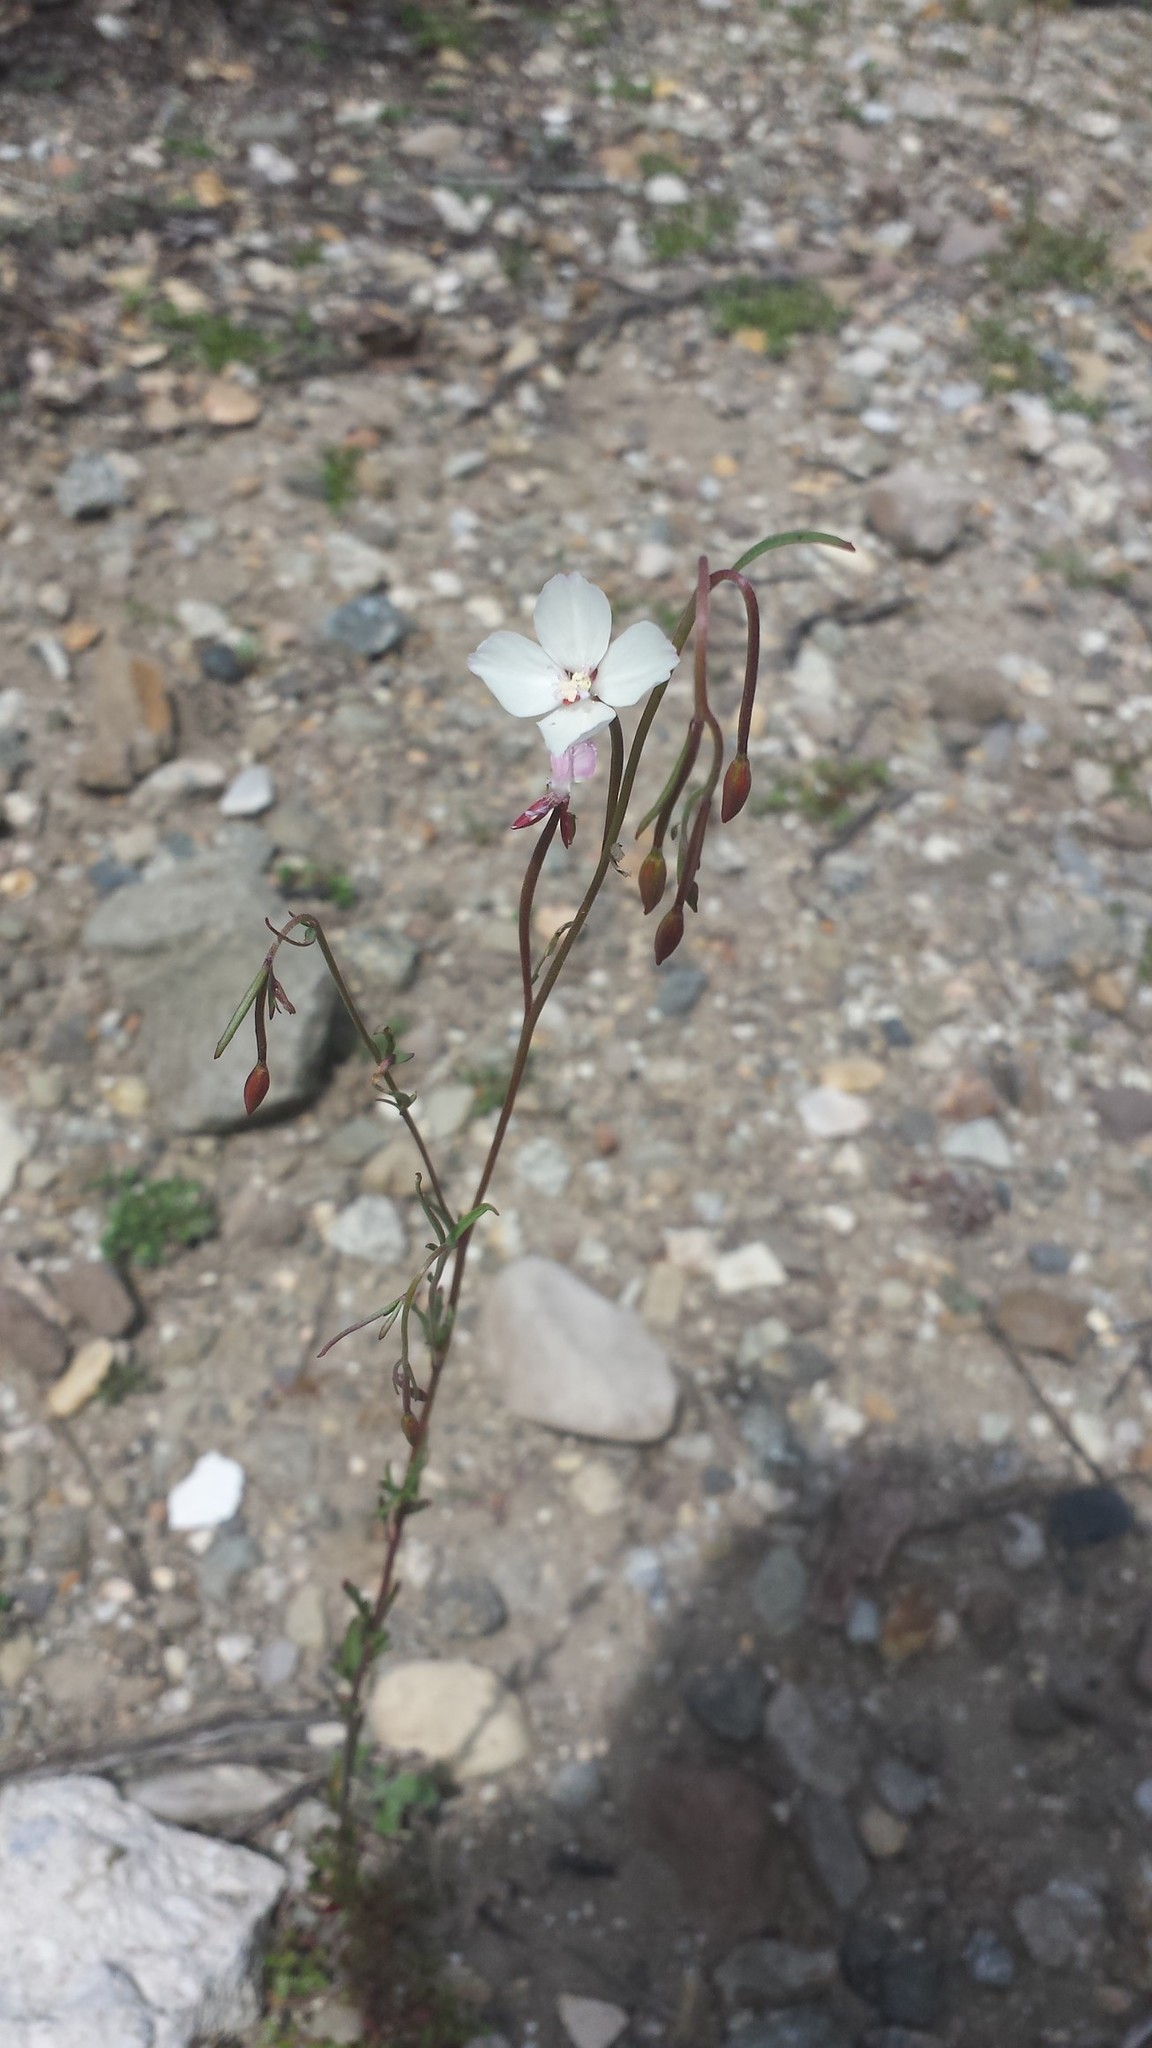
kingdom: Plantae
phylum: Tracheophyta
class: Magnoliopsida
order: Myrtales
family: Onagraceae
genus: Clarkia
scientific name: Clarkia epilobioides
